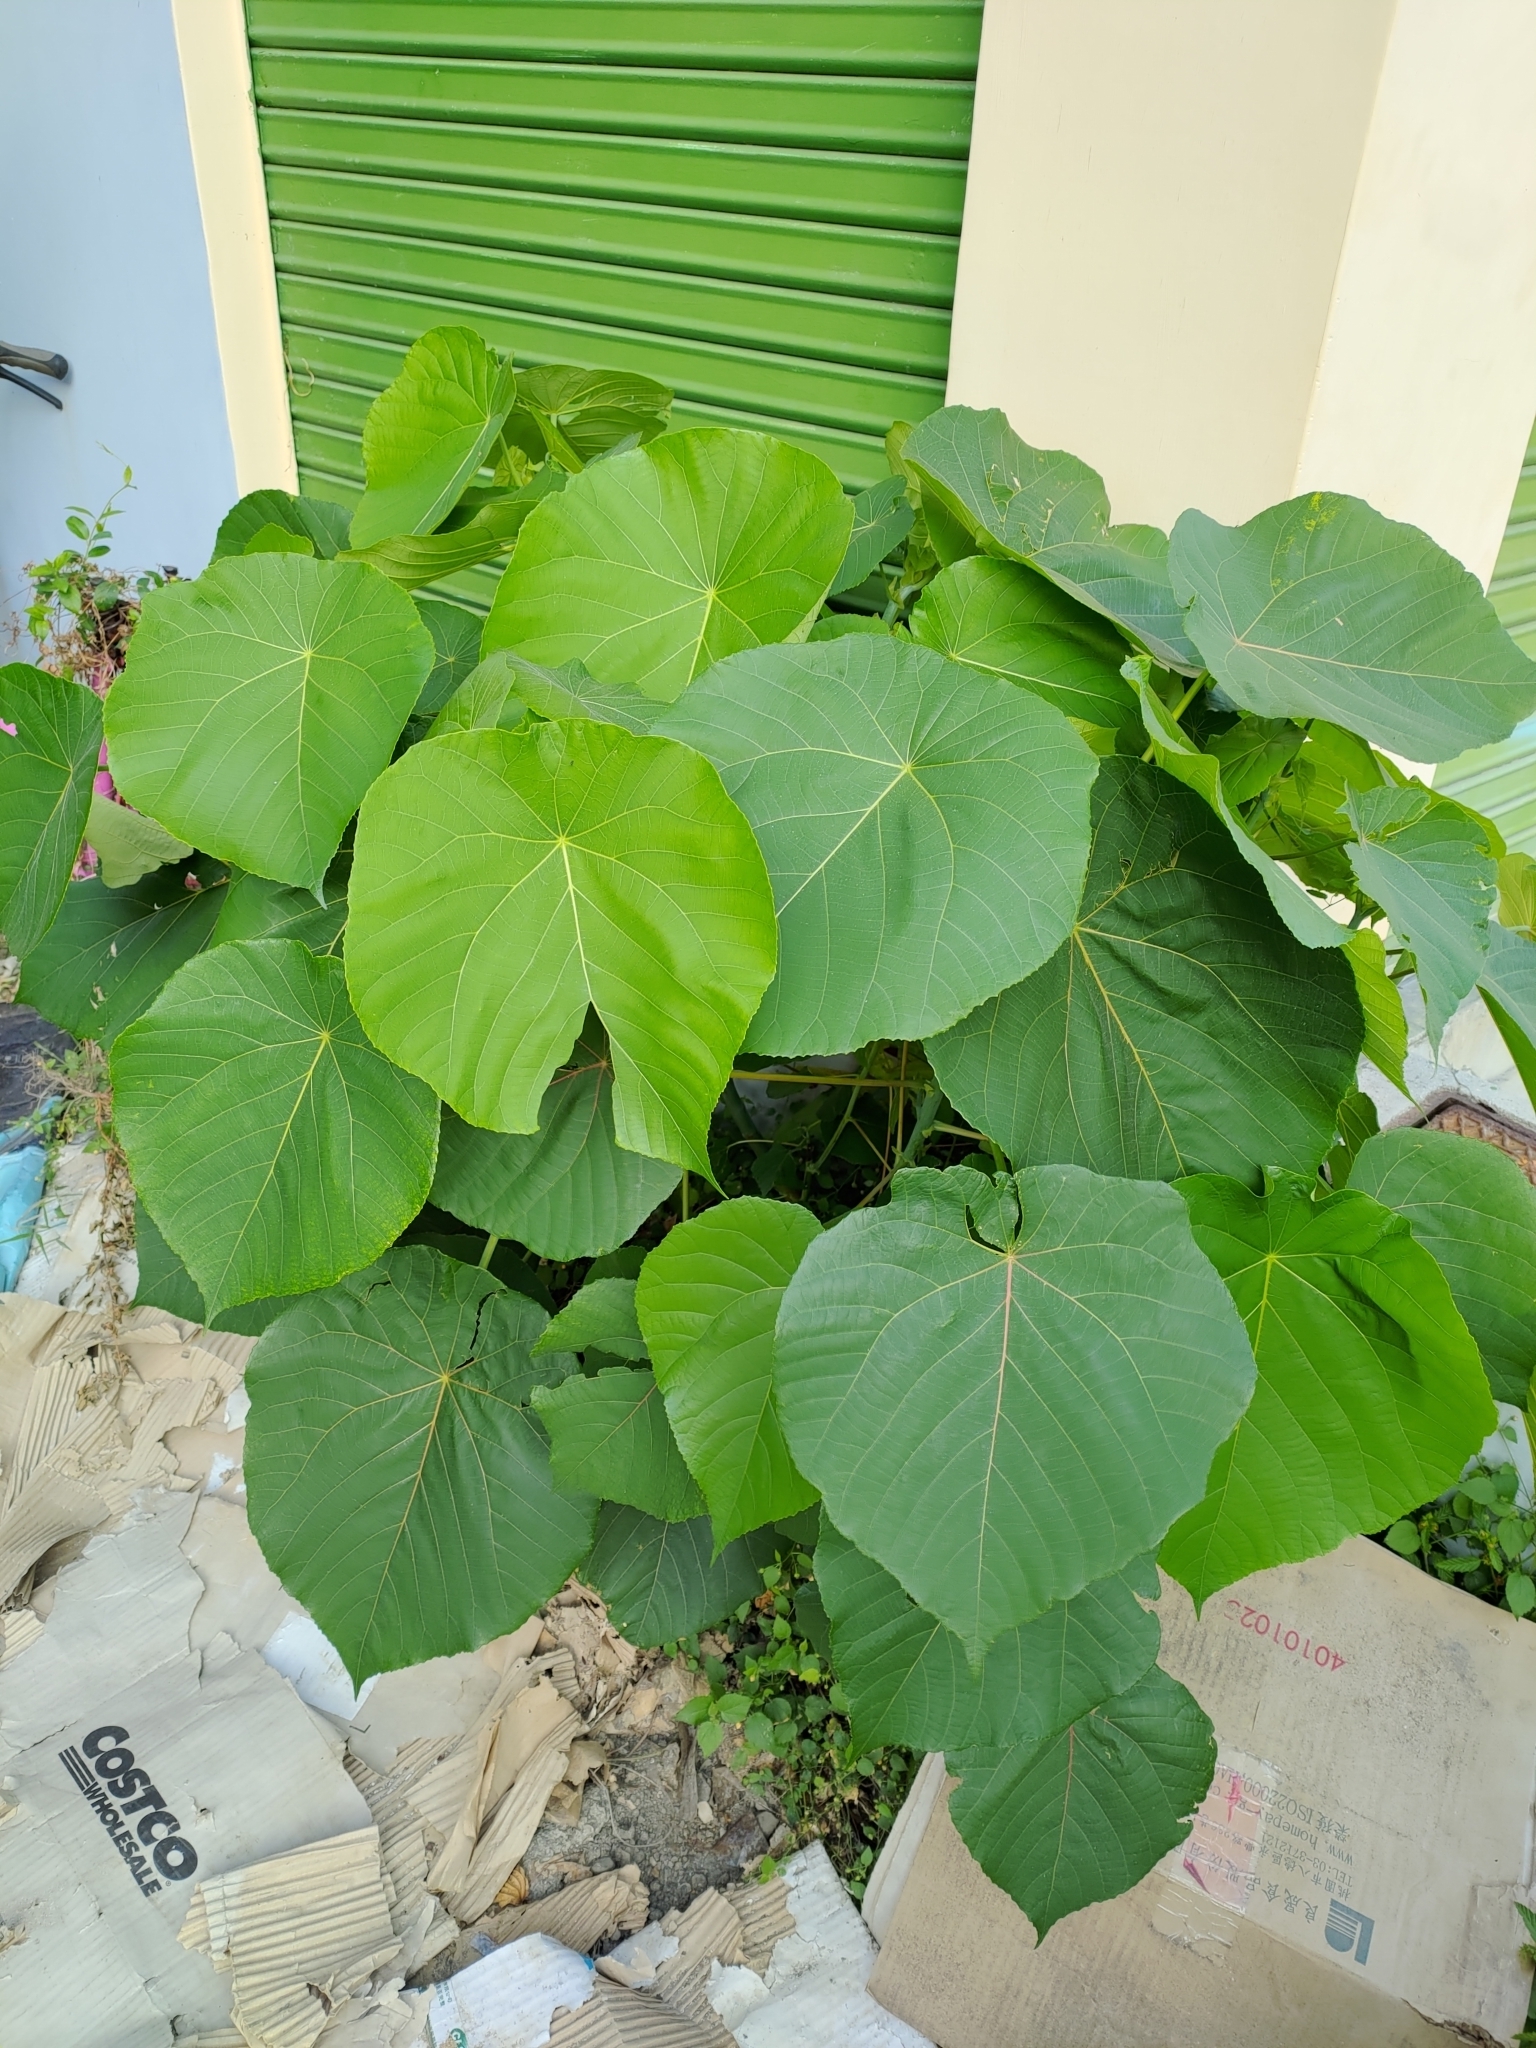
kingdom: Plantae
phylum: Tracheophyta
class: Magnoliopsida
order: Malpighiales
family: Euphorbiaceae
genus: Macaranga
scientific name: Macaranga tanarius
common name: Parasol leaf tree
